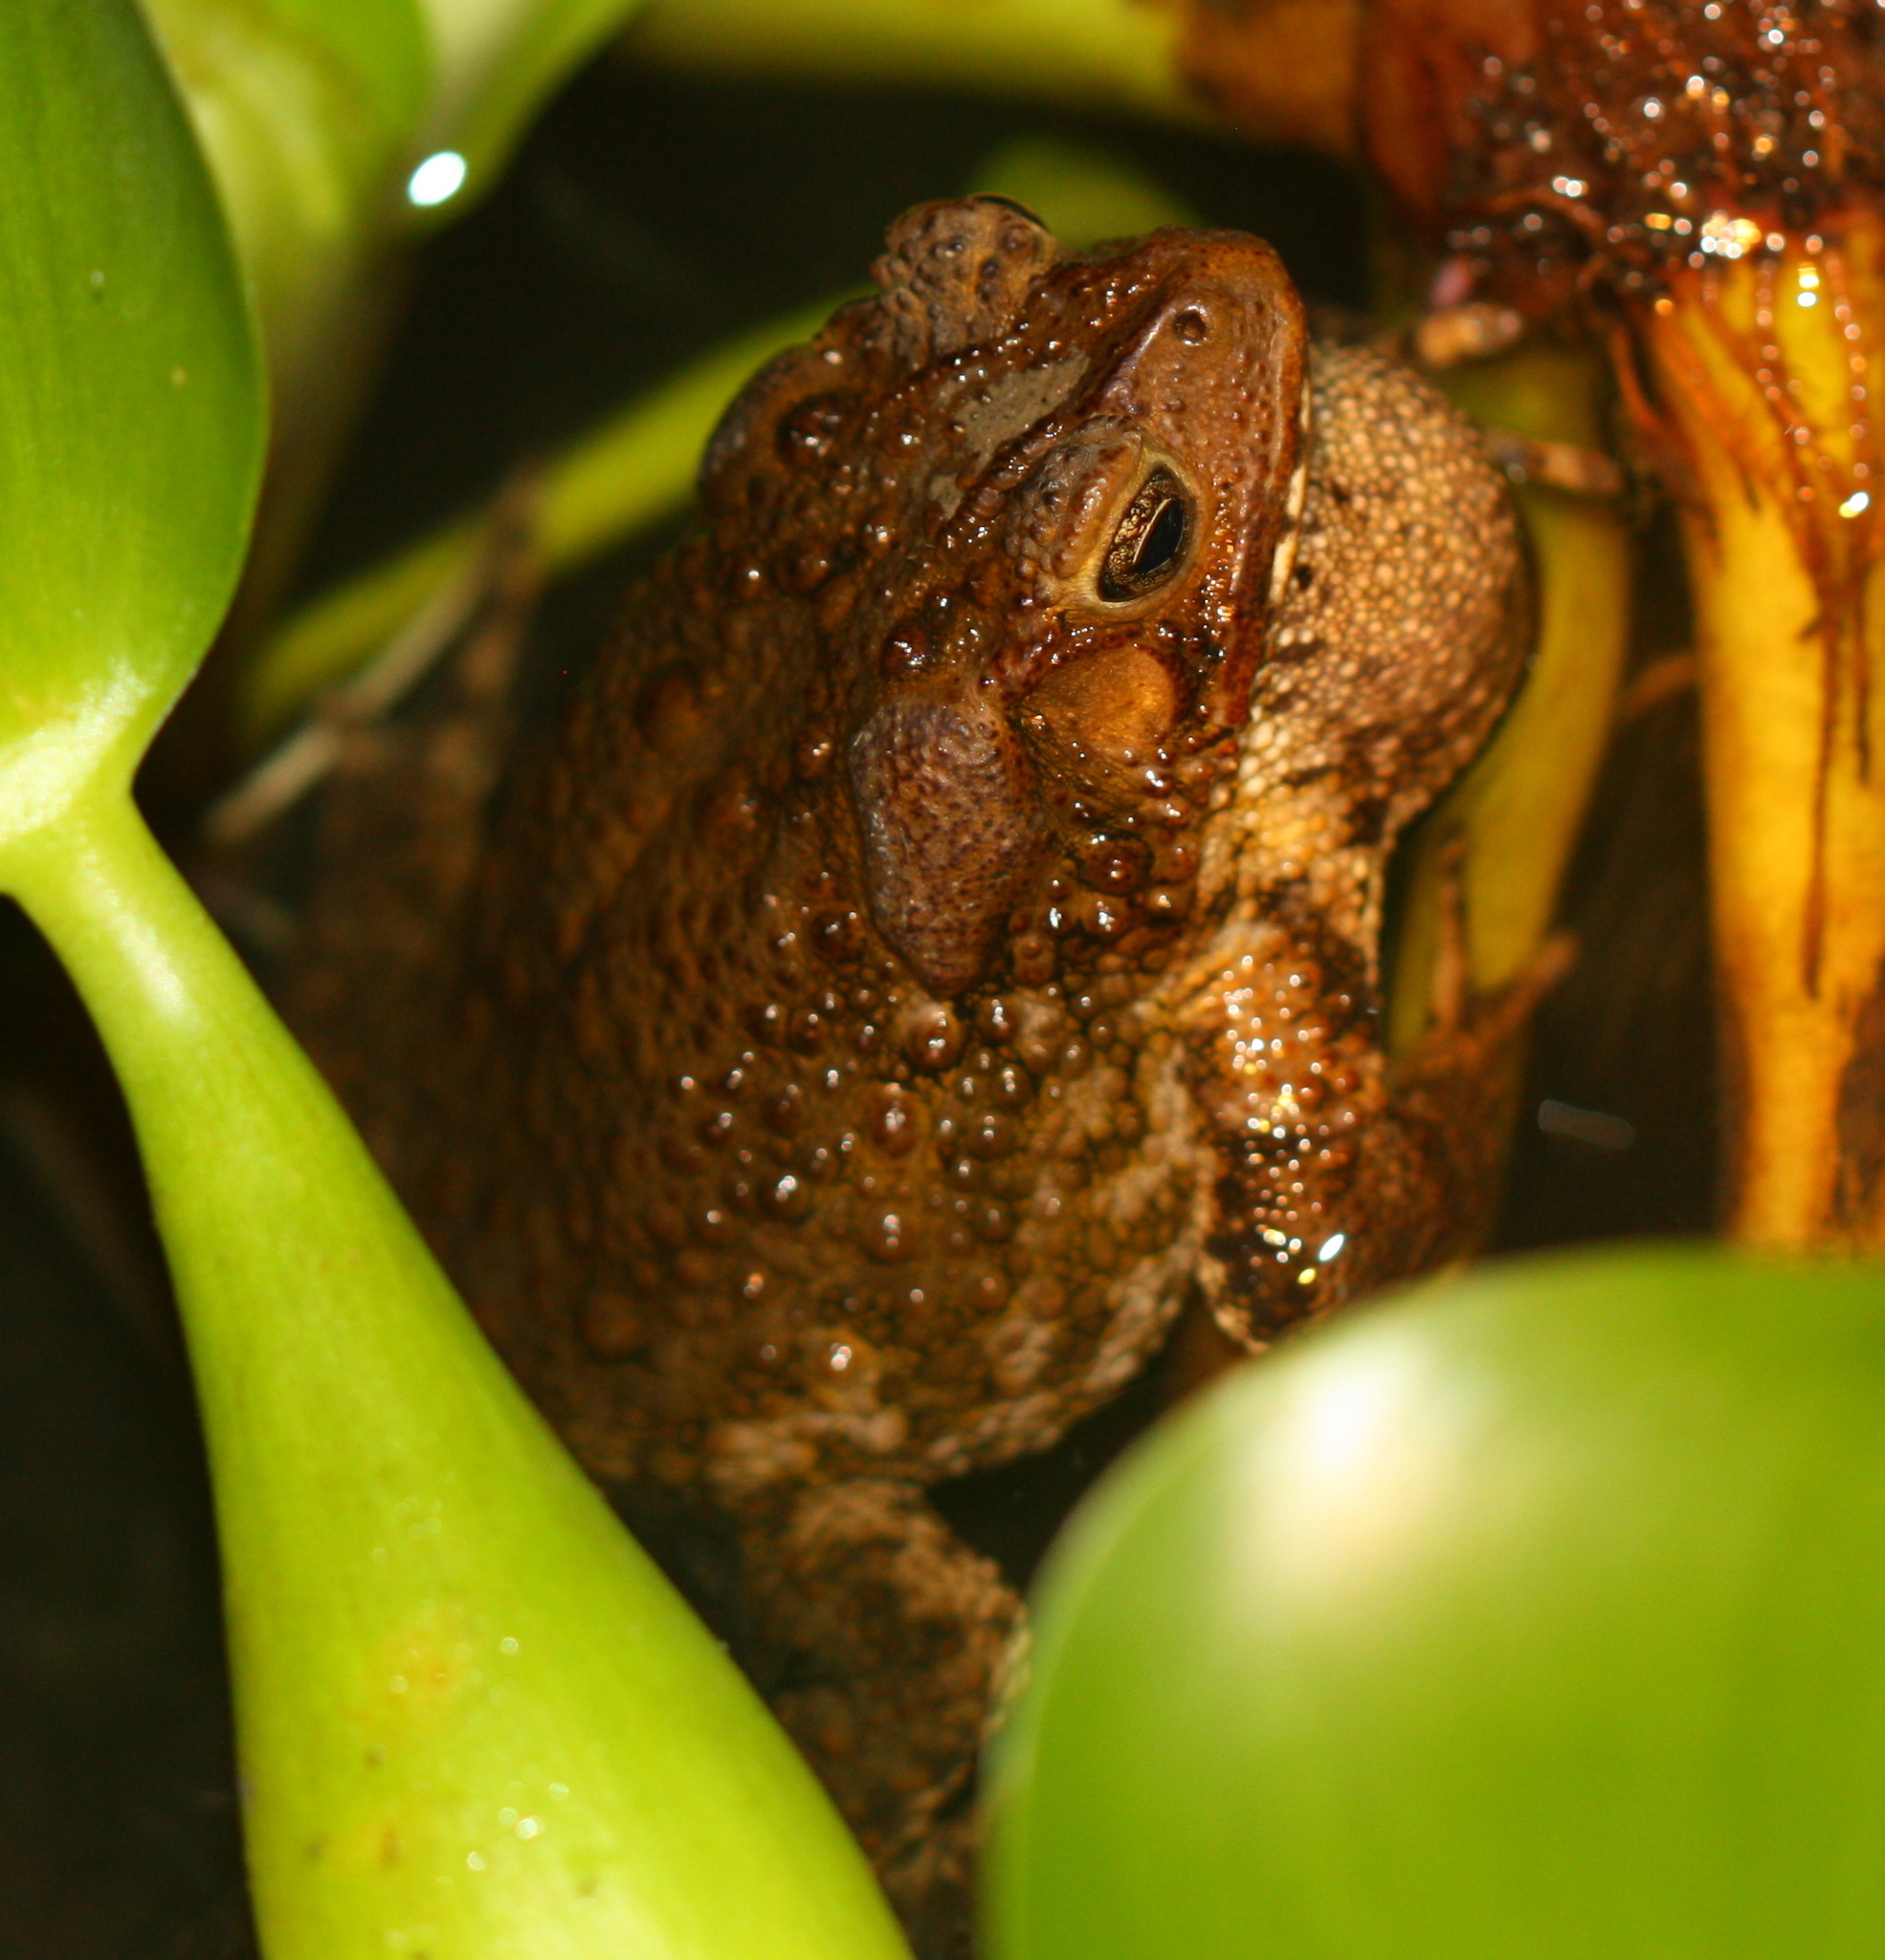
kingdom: Animalia
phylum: Chordata
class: Amphibia
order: Anura
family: Bufonidae
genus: Ingerophrynus
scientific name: Ingerophrynus biporcatus
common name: Crested toad
